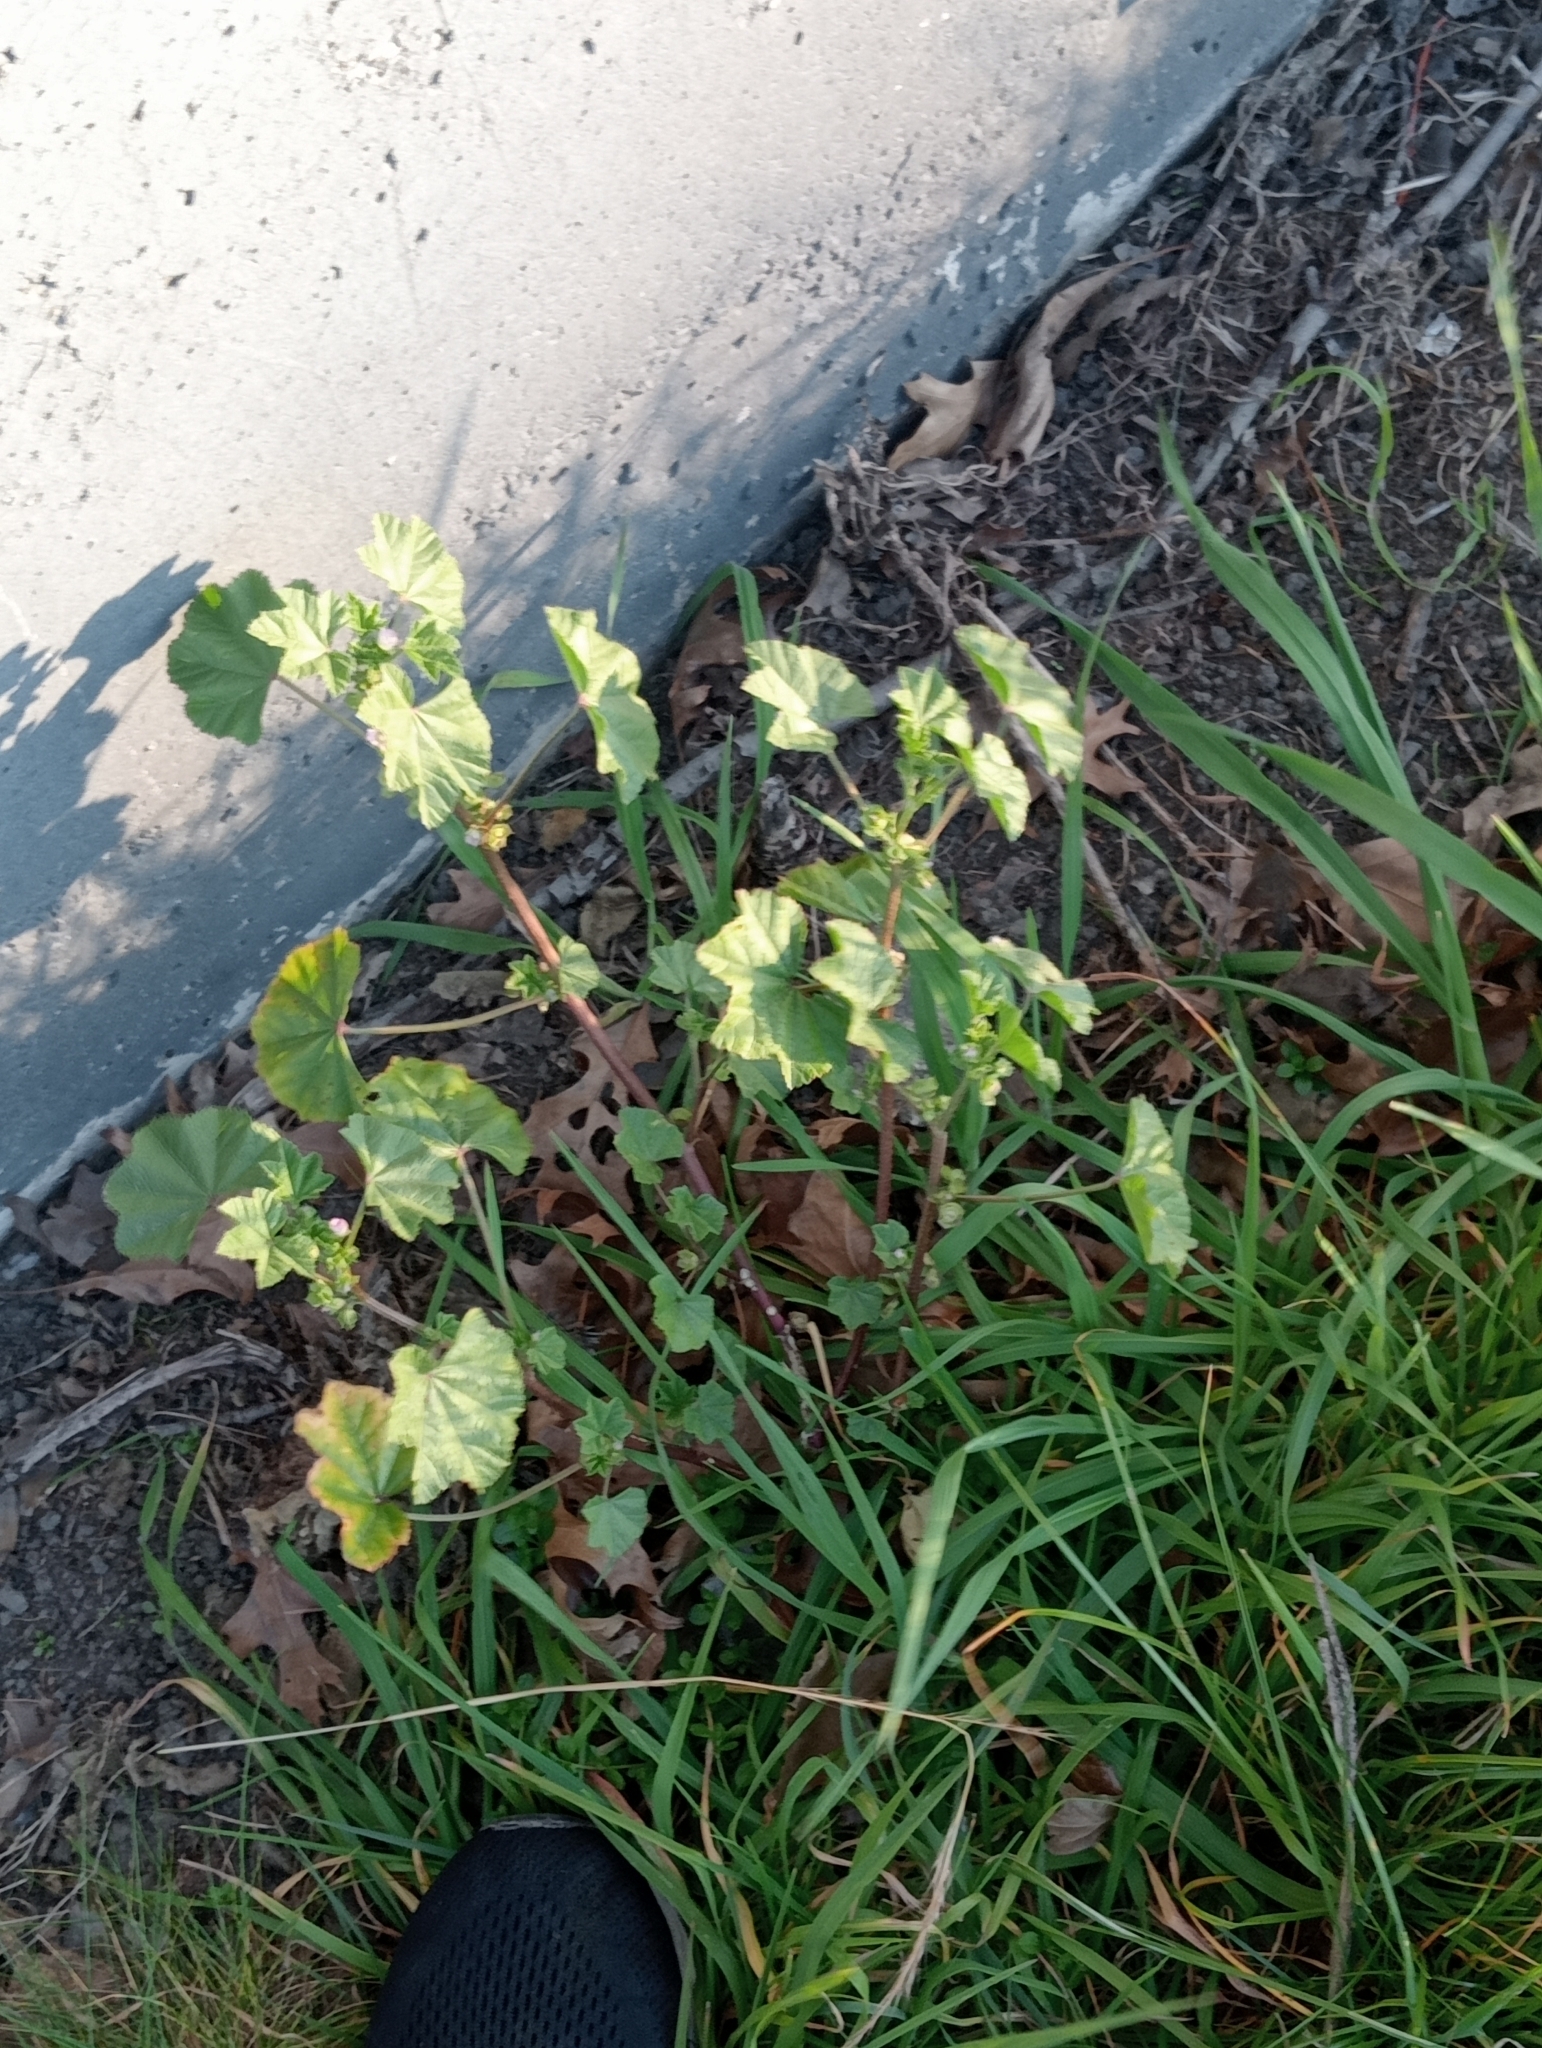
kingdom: Plantae
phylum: Tracheophyta
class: Magnoliopsida
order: Malvales
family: Malvaceae
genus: Malva
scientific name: Malva parviflora
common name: Least mallow
